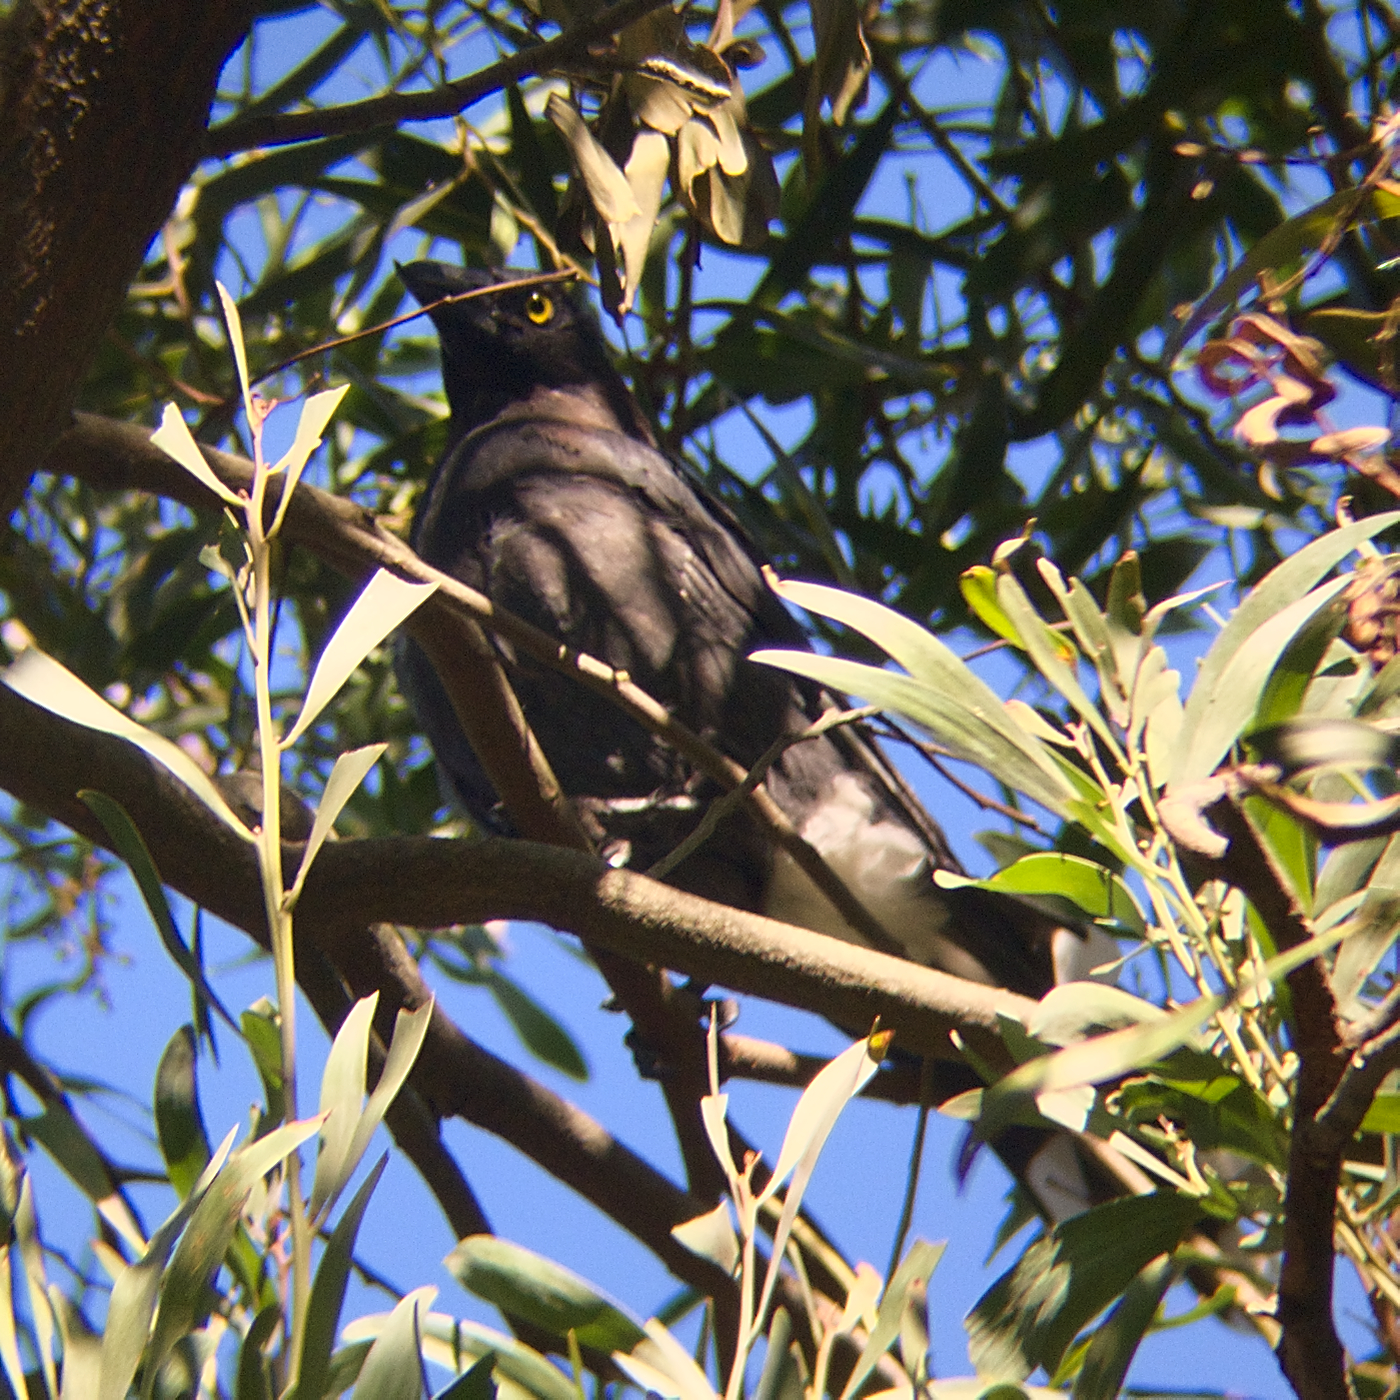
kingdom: Animalia
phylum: Chordata
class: Aves
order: Passeriformes
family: Cracticidae
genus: Strepera
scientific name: Strepera graculina
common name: Pied currawong
